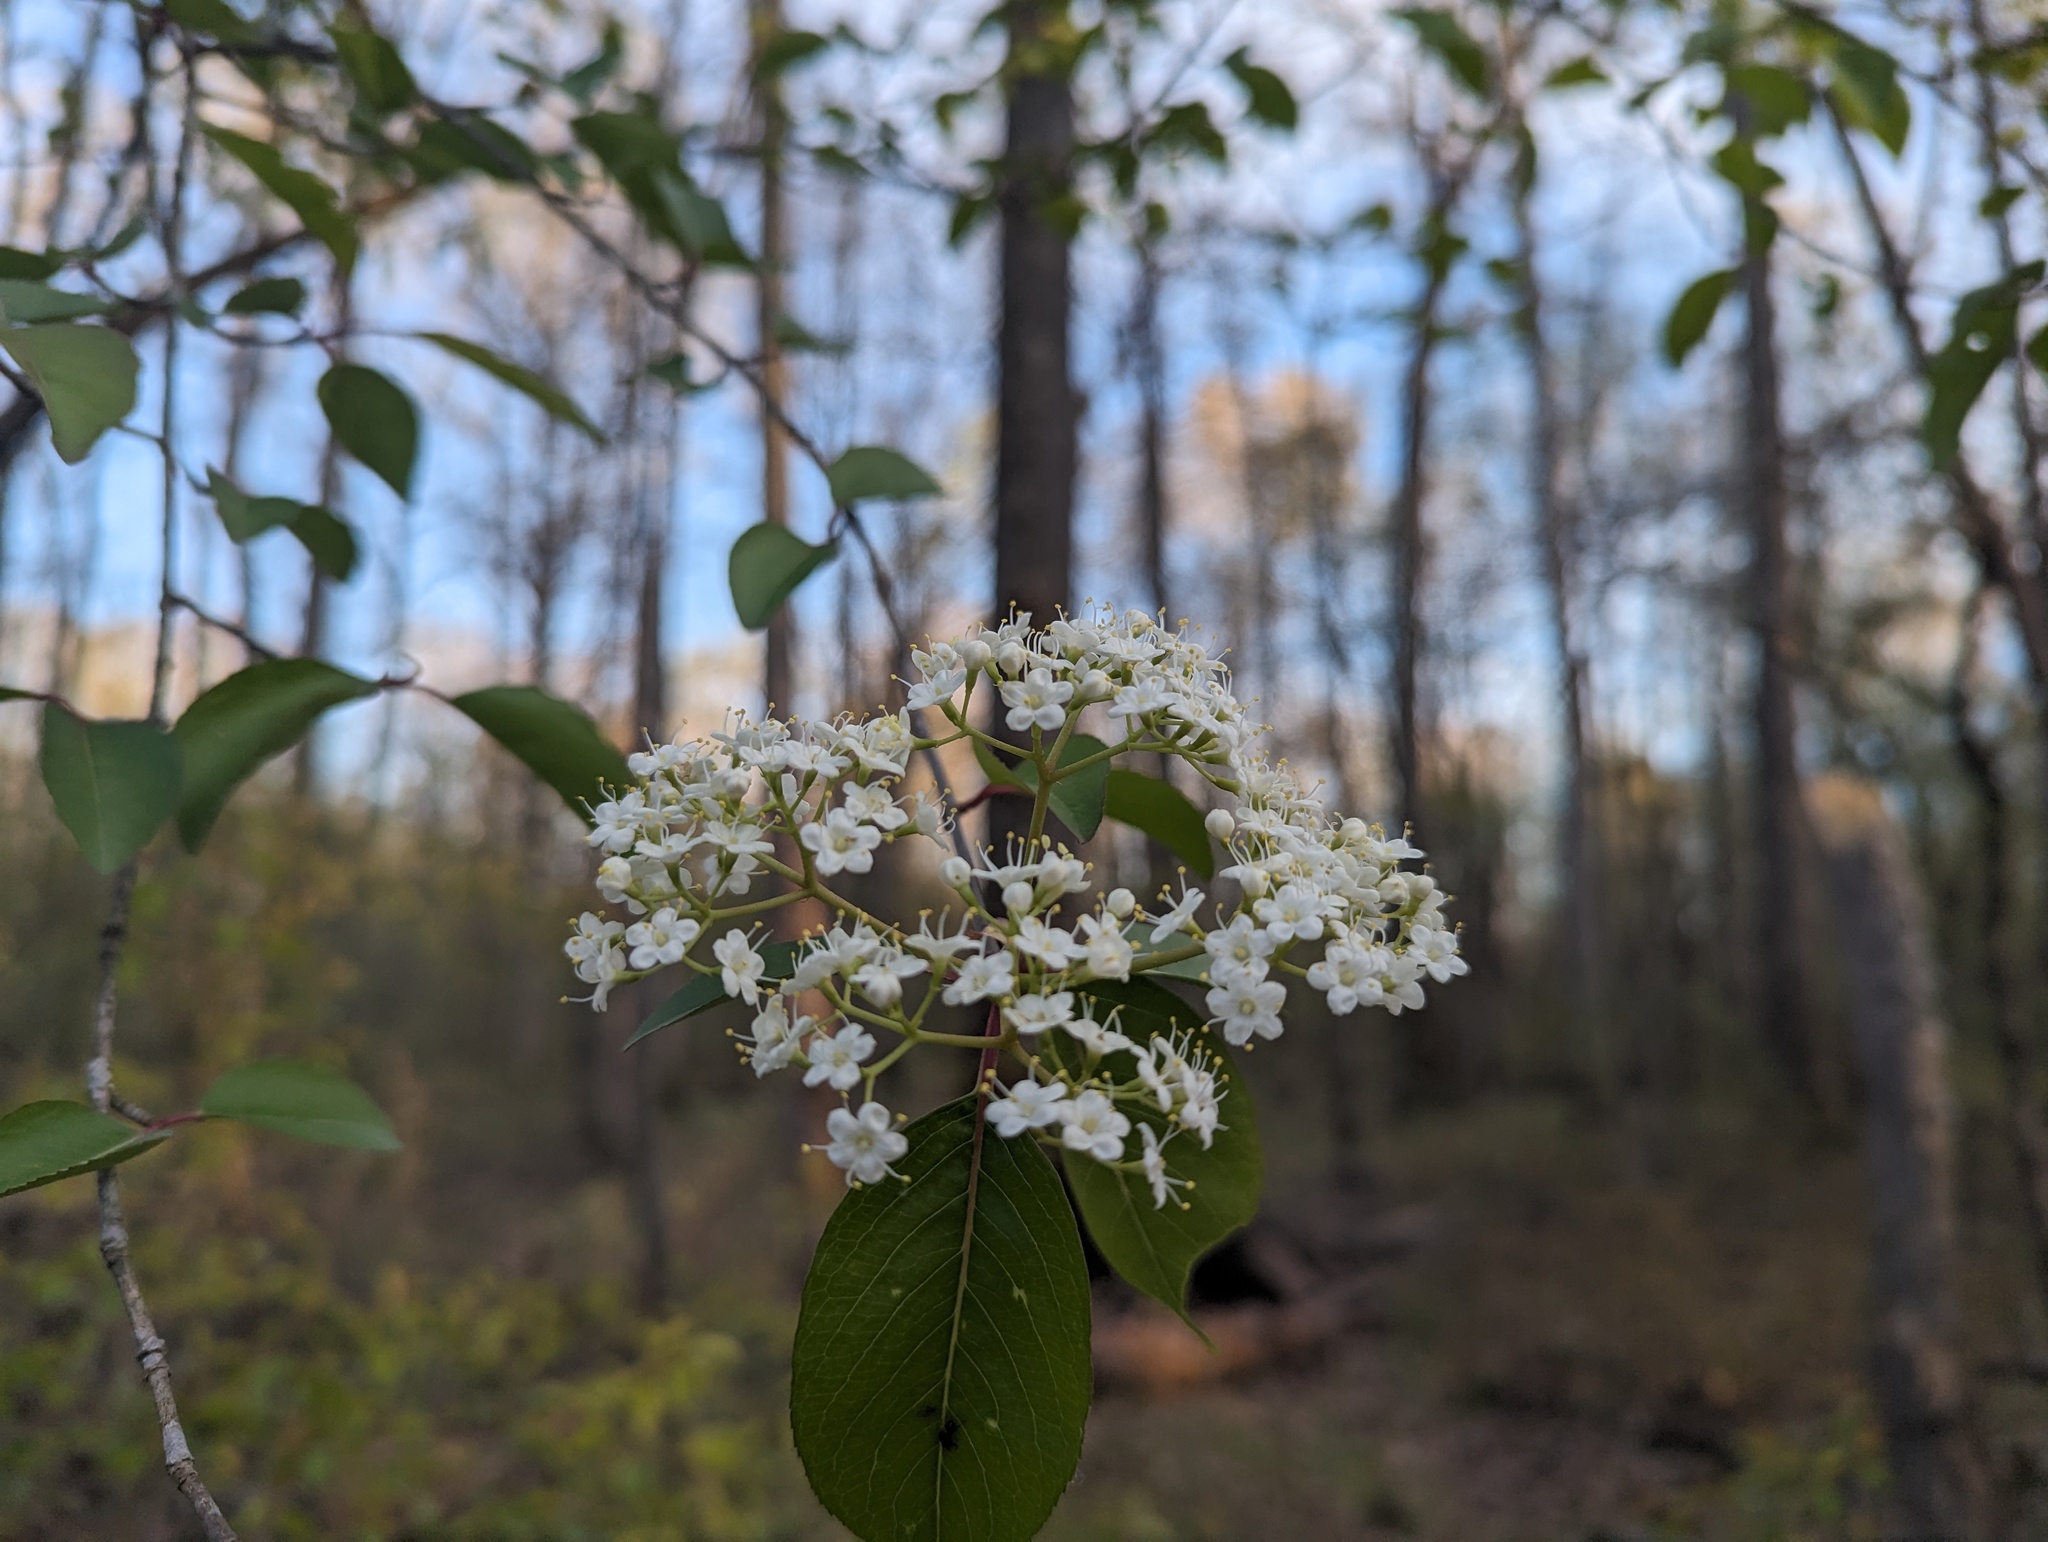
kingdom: Plantae
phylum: Tracheophyta
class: Magnoliopsida
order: Dipsacales
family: Viburnaceae
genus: Viburnum
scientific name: Viburnum prunifolium
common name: Black haw
